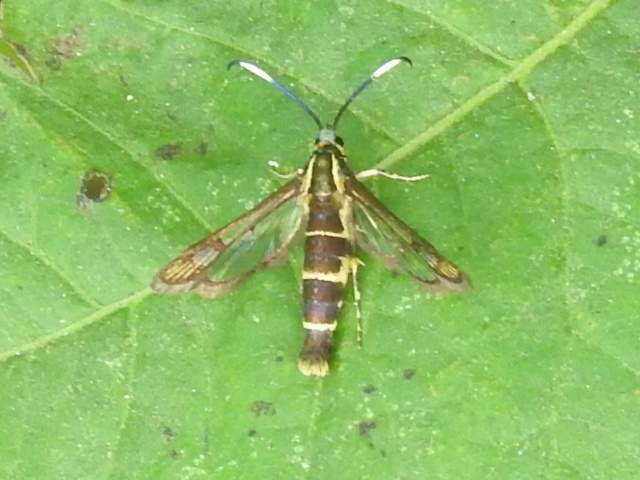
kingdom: Animalia
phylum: Arthropoda
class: Insecta
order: Lepidoptera
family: Sesiidae
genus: Carmenta
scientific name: Carmenta bassiformis
